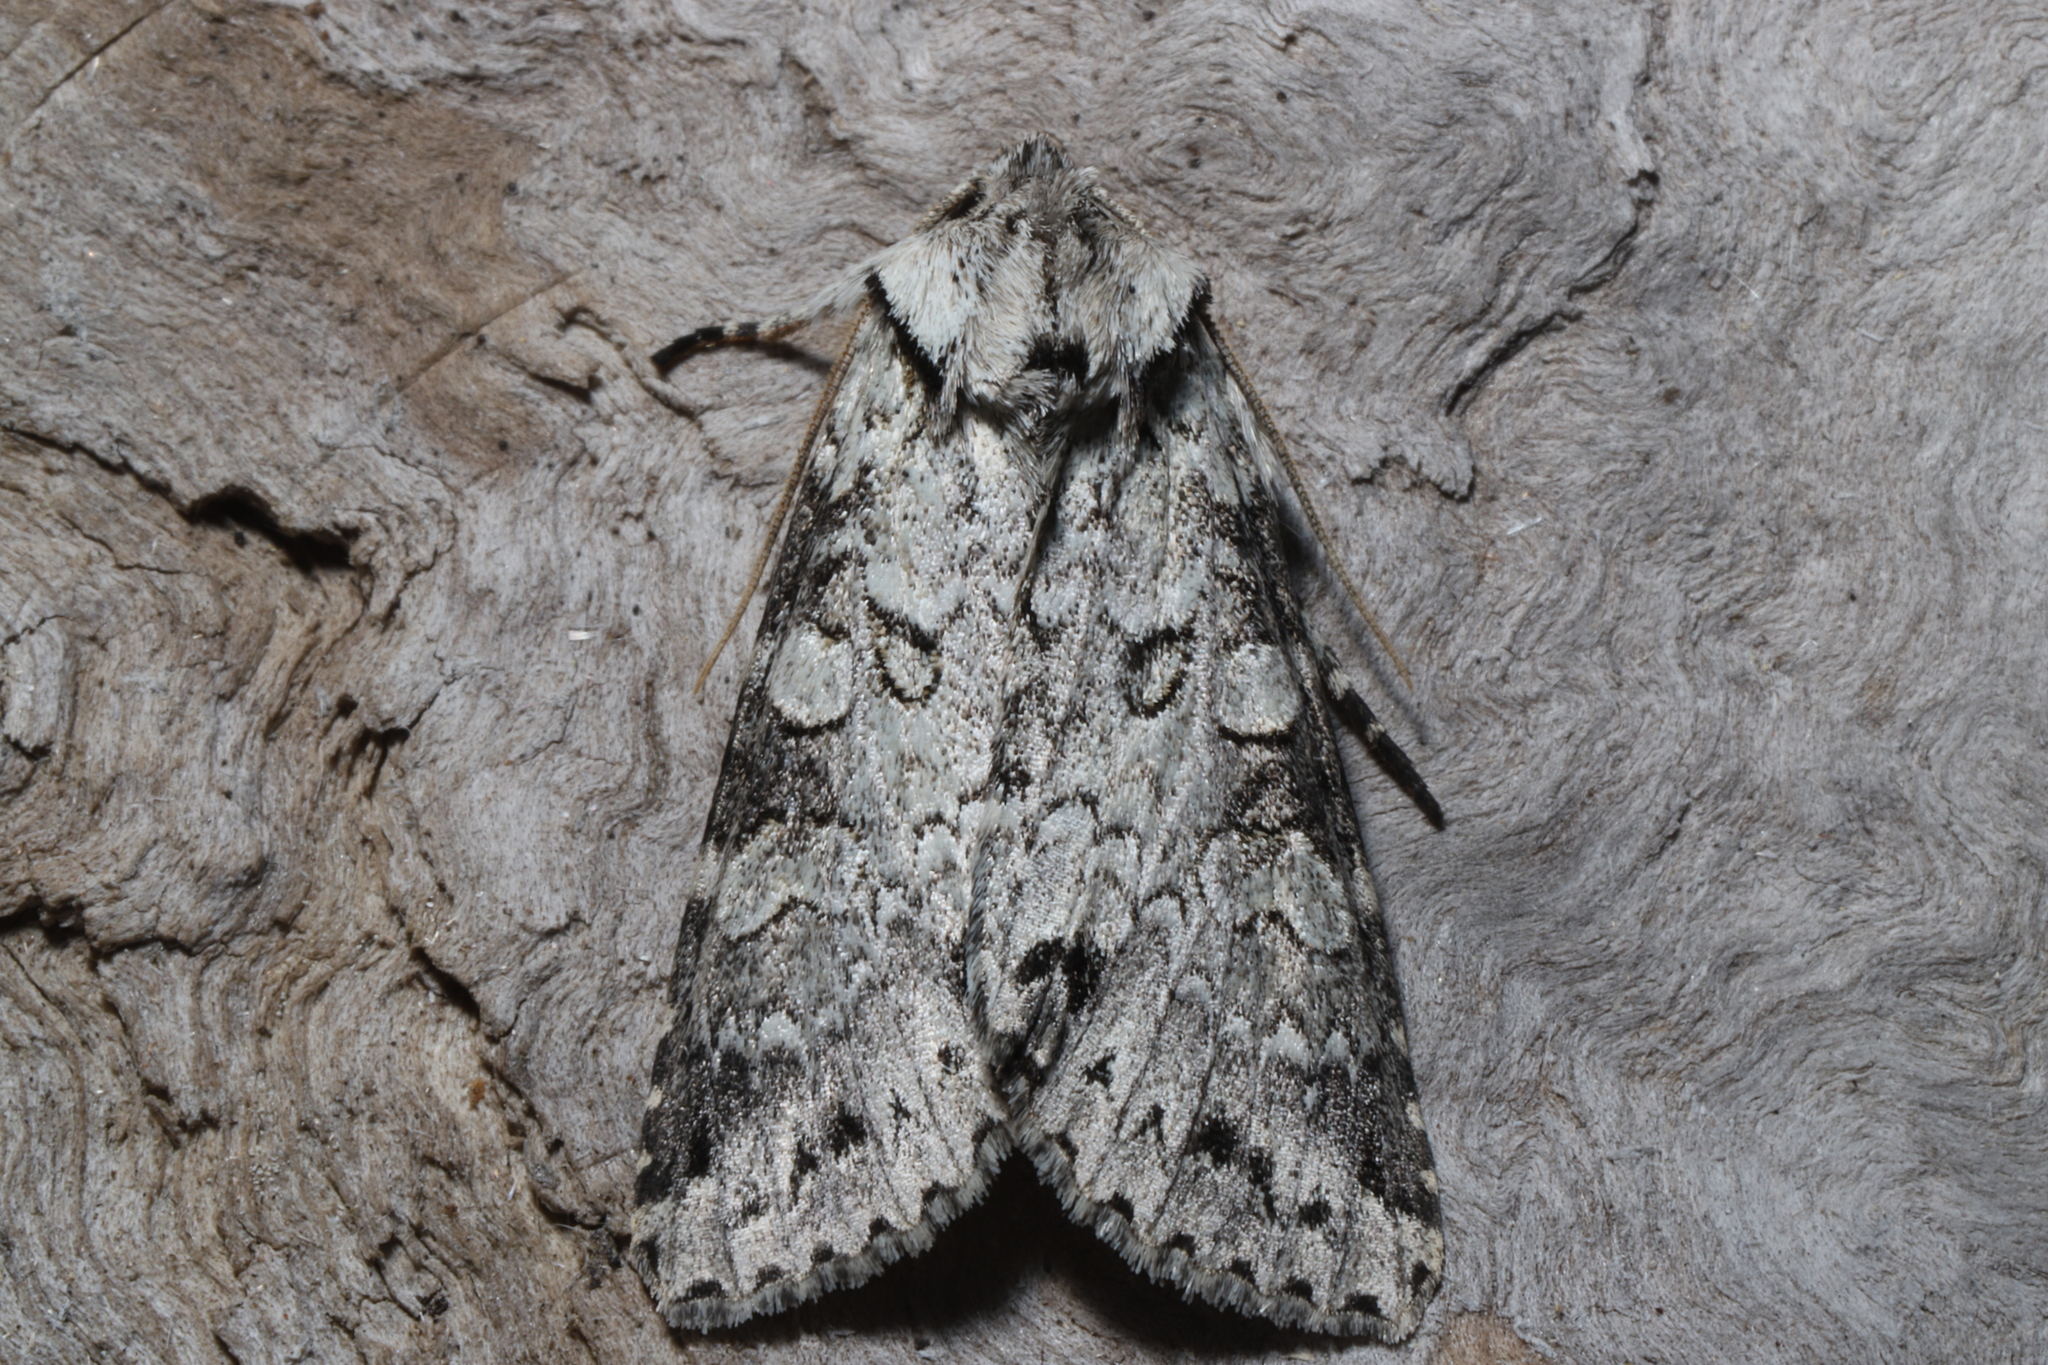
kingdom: Animalia
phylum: Arthropoda
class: Insecta
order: Lepidoptera
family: Noctuidae
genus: Polia
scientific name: Polia nimbosa
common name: Stormy arches
